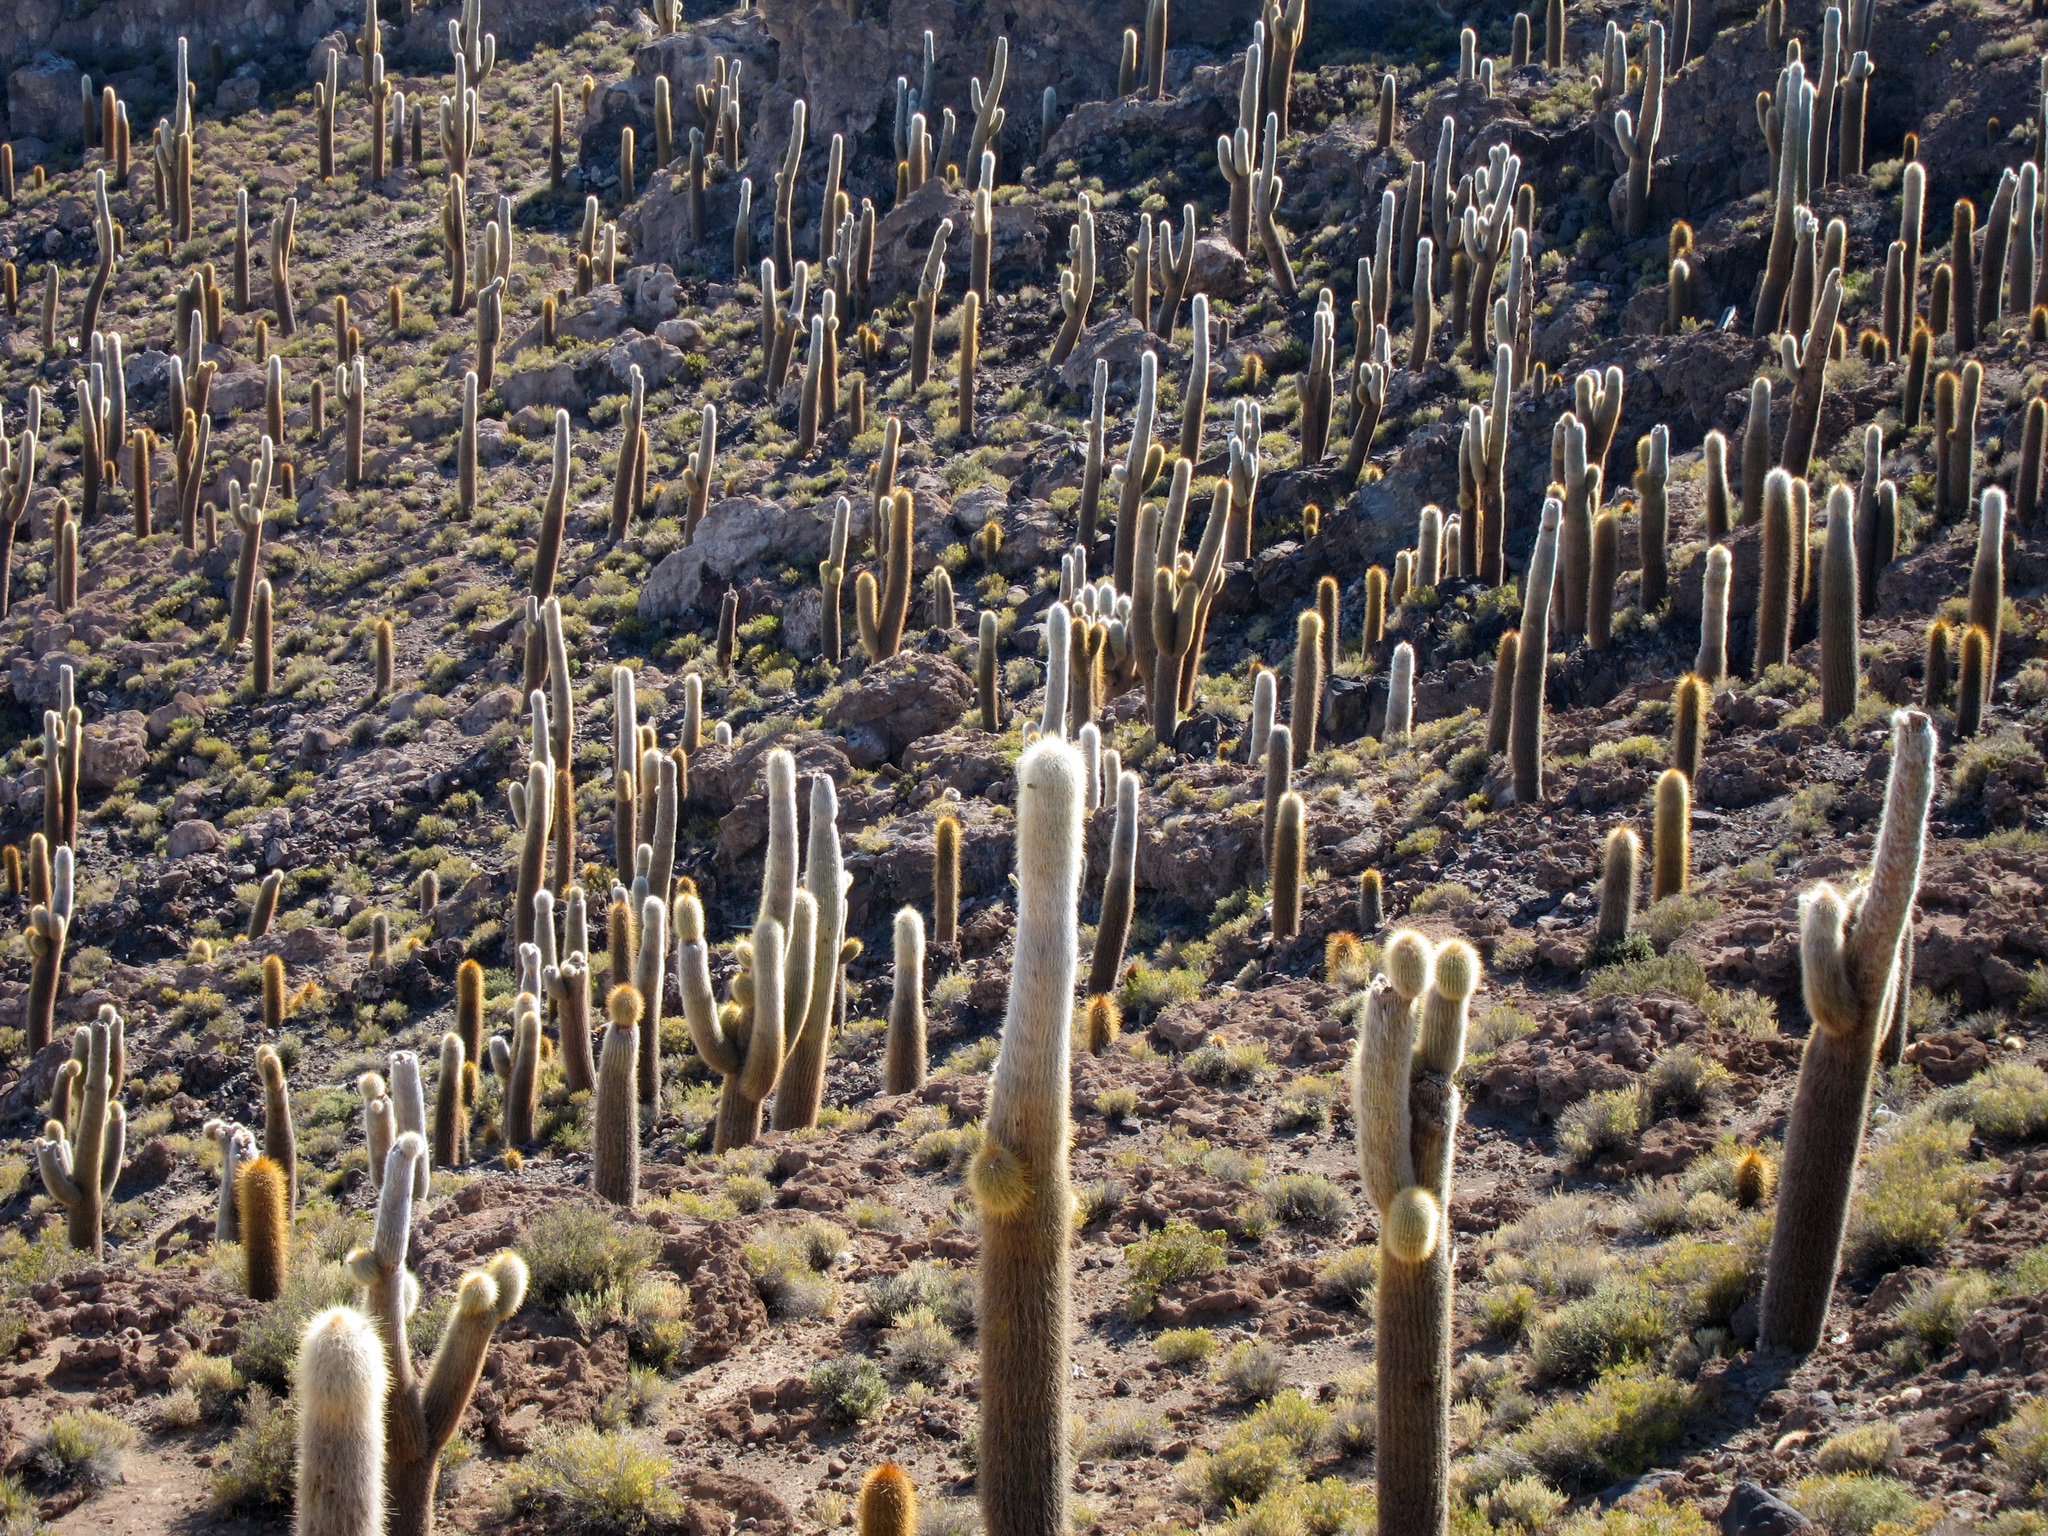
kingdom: Plantae
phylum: Tracheophyta
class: Magnoliopsida
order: Caryophyllales
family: Cactaceae
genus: Leucostele
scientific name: Leucostele atacamensis
